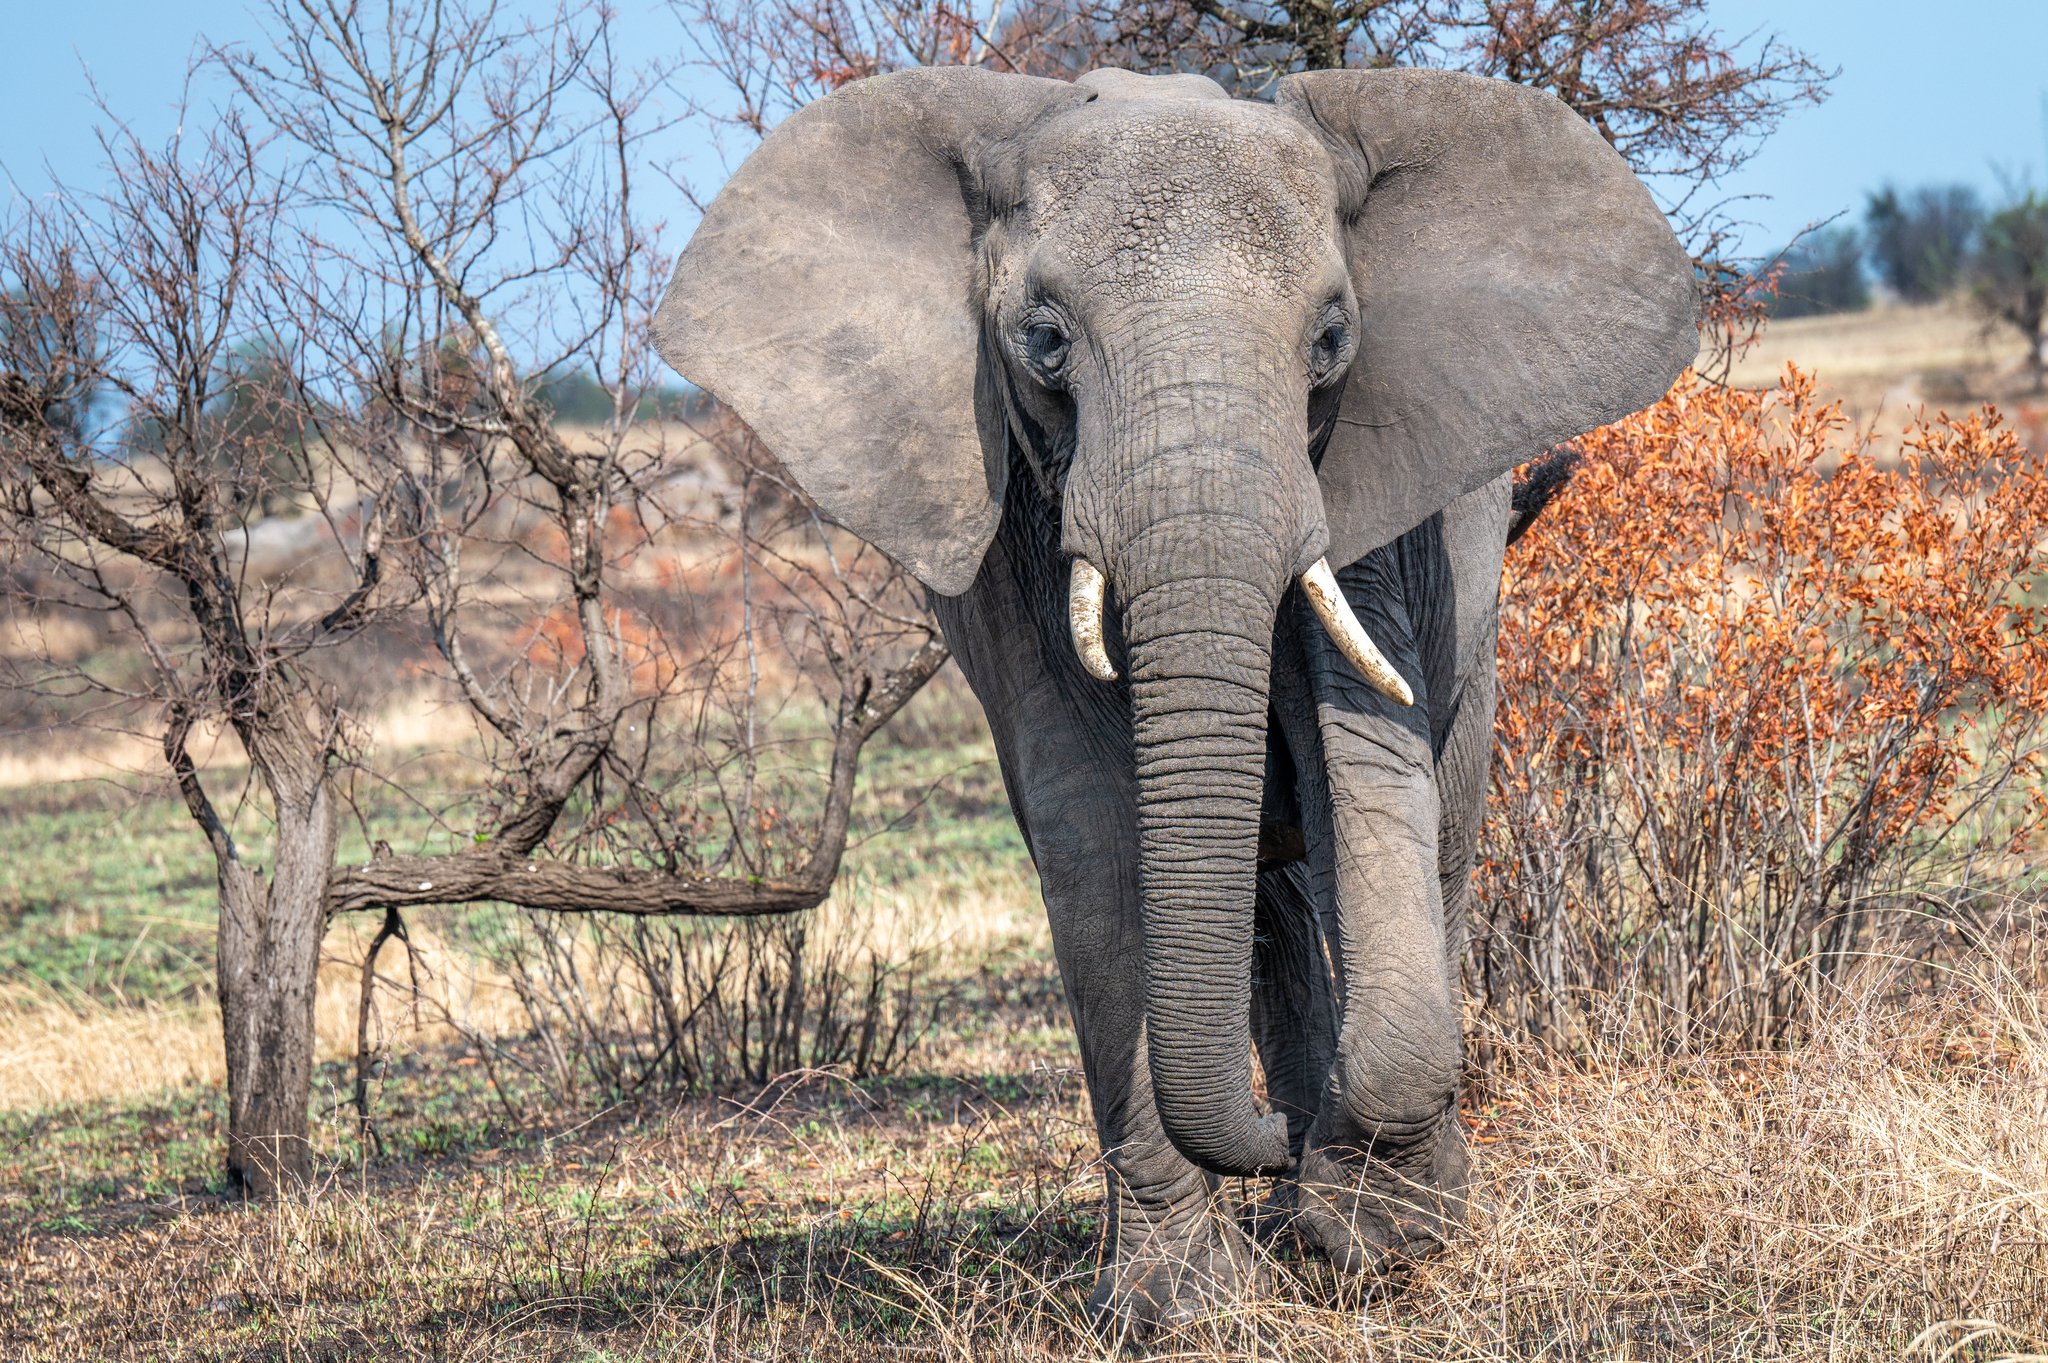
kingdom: Animalia
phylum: Chordata
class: Mammalia
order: Proboscidea
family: Elephantidae
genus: Loxodonta
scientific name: Loxodonta africana
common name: African elephant
